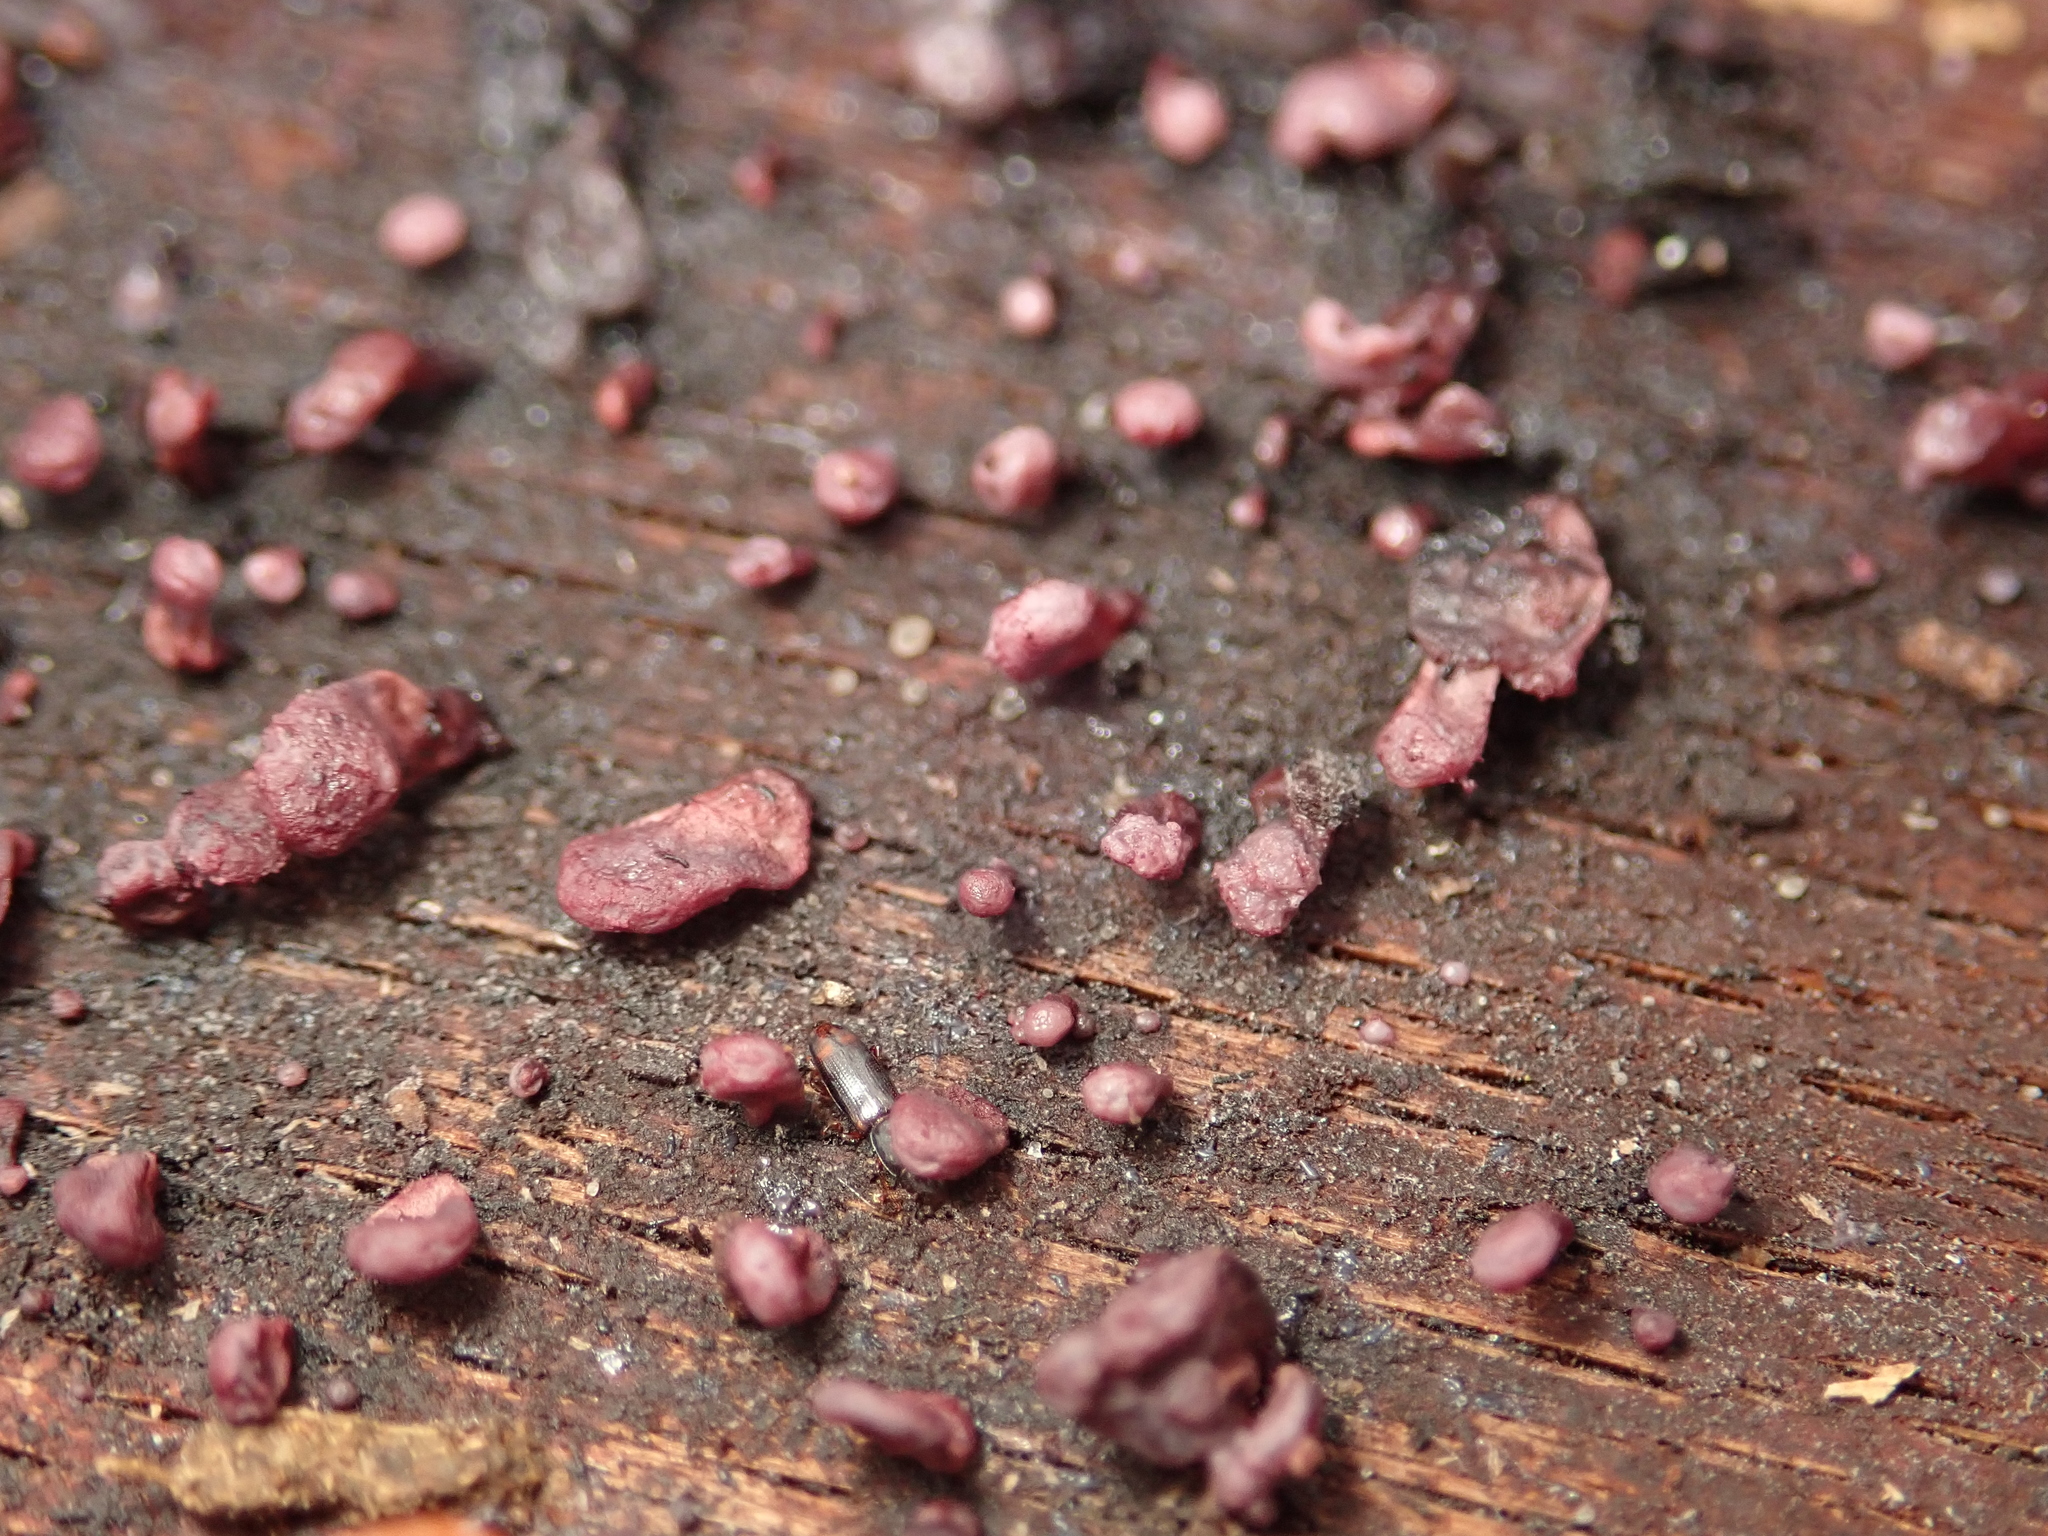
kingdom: Fungi
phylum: Ascomycota
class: Leotiomycetes
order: Helotiales
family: Gelatinodiscaceae
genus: Ascocoryne
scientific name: Ascocoryne sarcoides
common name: Purple jellydisc
